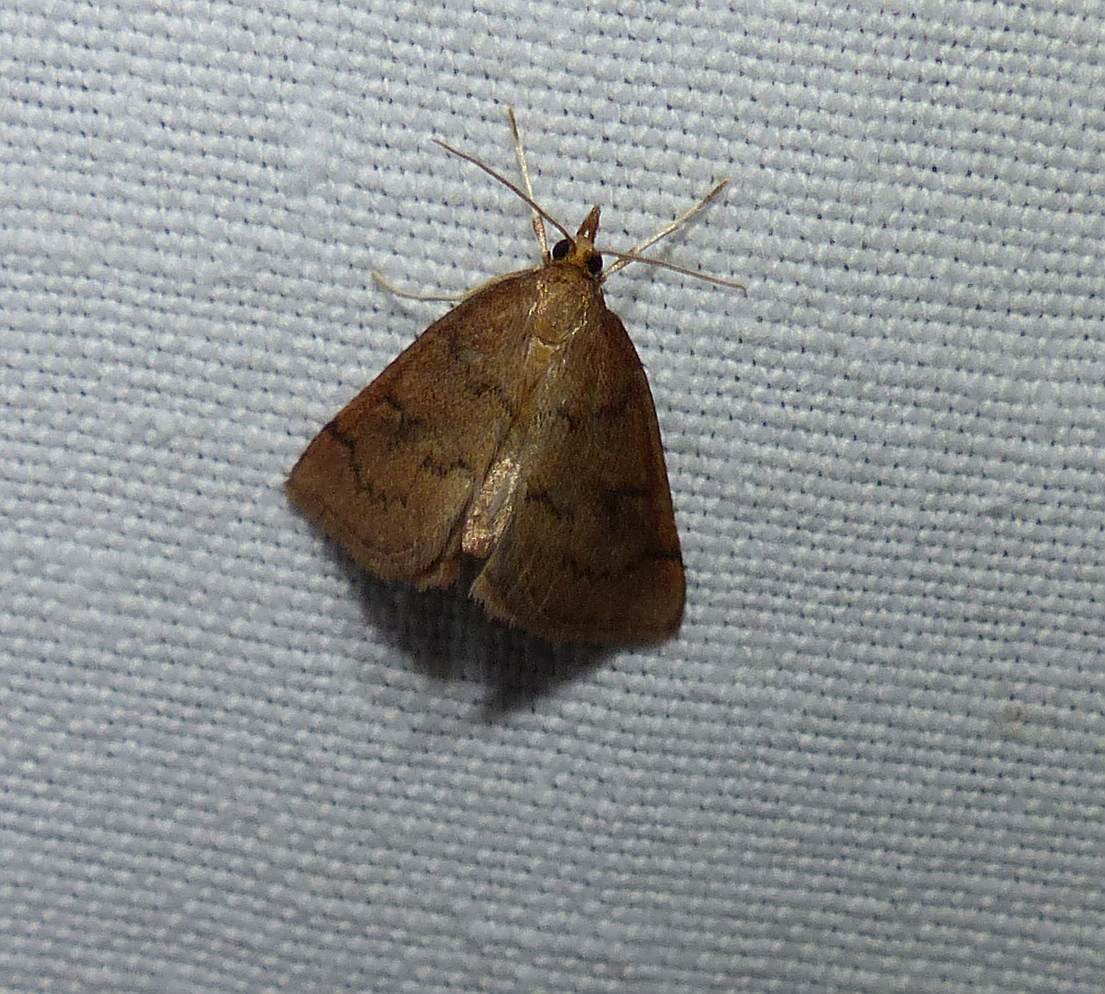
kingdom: Animalia
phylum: Arthropoda
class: Insecta
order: Lepidoptera
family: Crambidae
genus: Fumibotys
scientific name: Fumibotys fumalis
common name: Mint root borer moth
